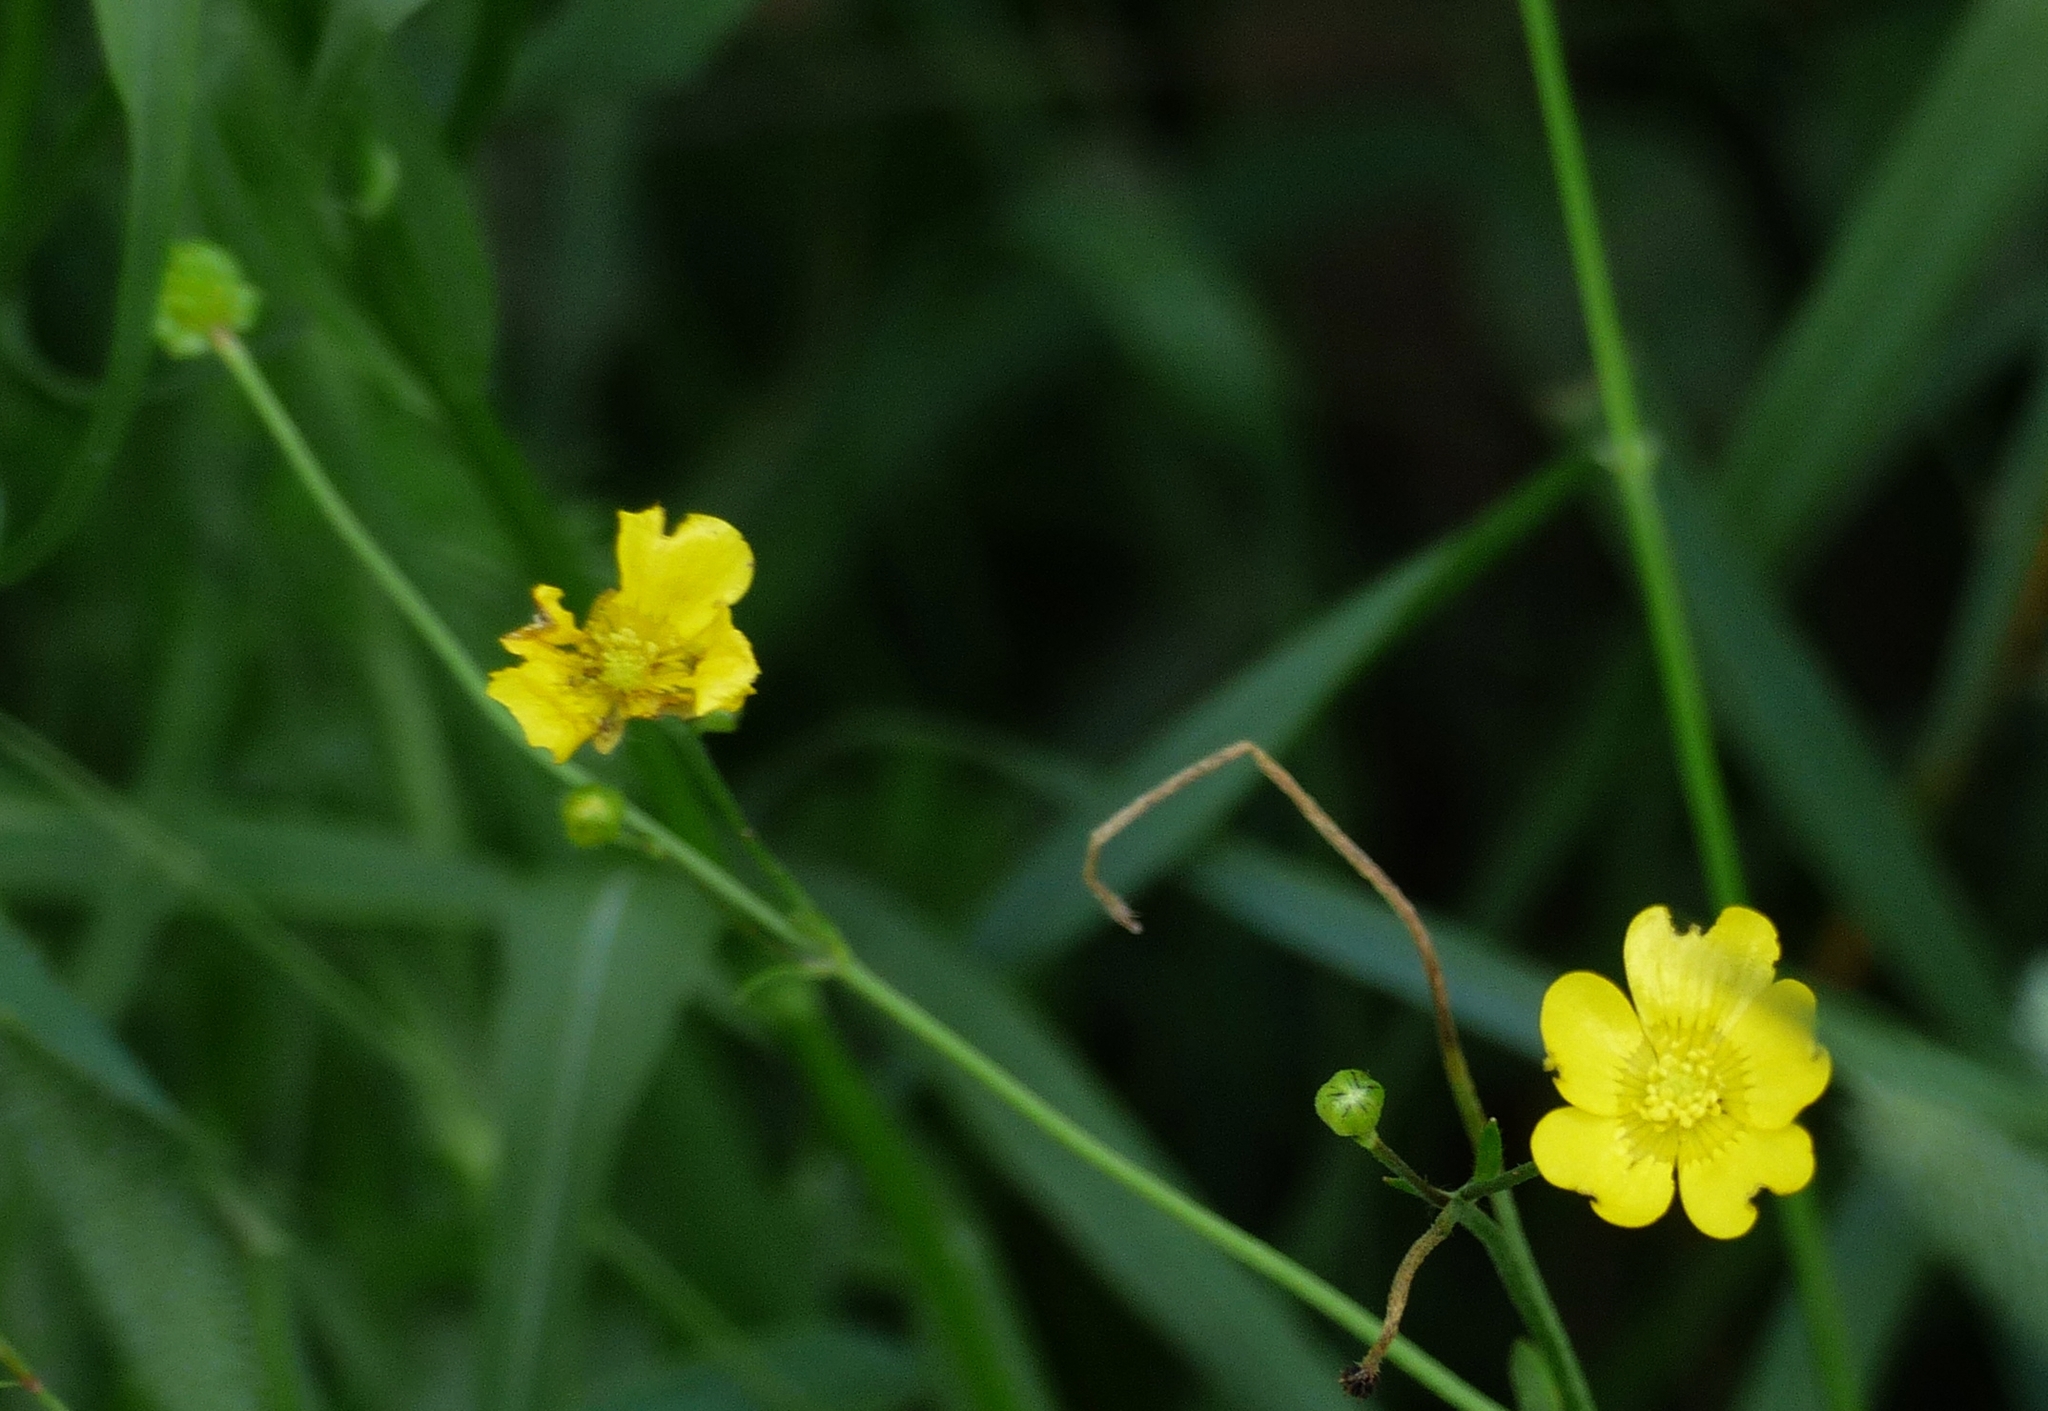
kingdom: Plantae
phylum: Tracheophyta
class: Magnoliopsida
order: Ranunculales
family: Ranunculaceae
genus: Ranunculus
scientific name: Ranunculus acris
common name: Meadow buttercup
